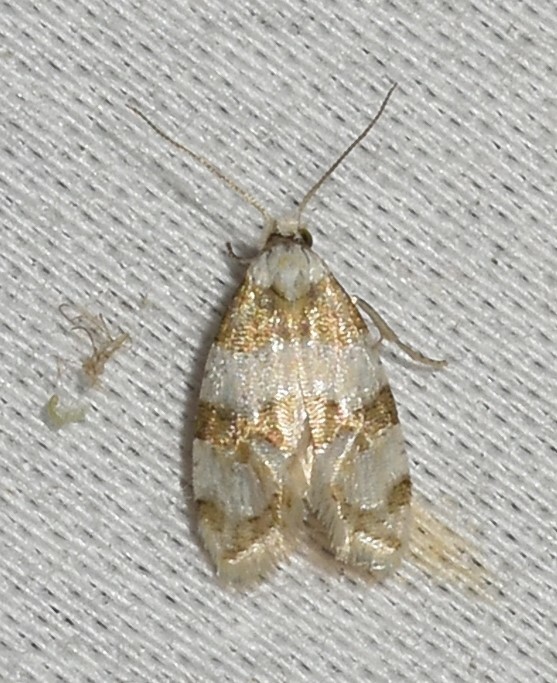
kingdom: Animalia
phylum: Arthropoda
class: Insecta
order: Lepidoptera
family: Tortricidae
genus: Aethes
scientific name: Aethes argentilimitana
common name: Silver-bordered aethes
